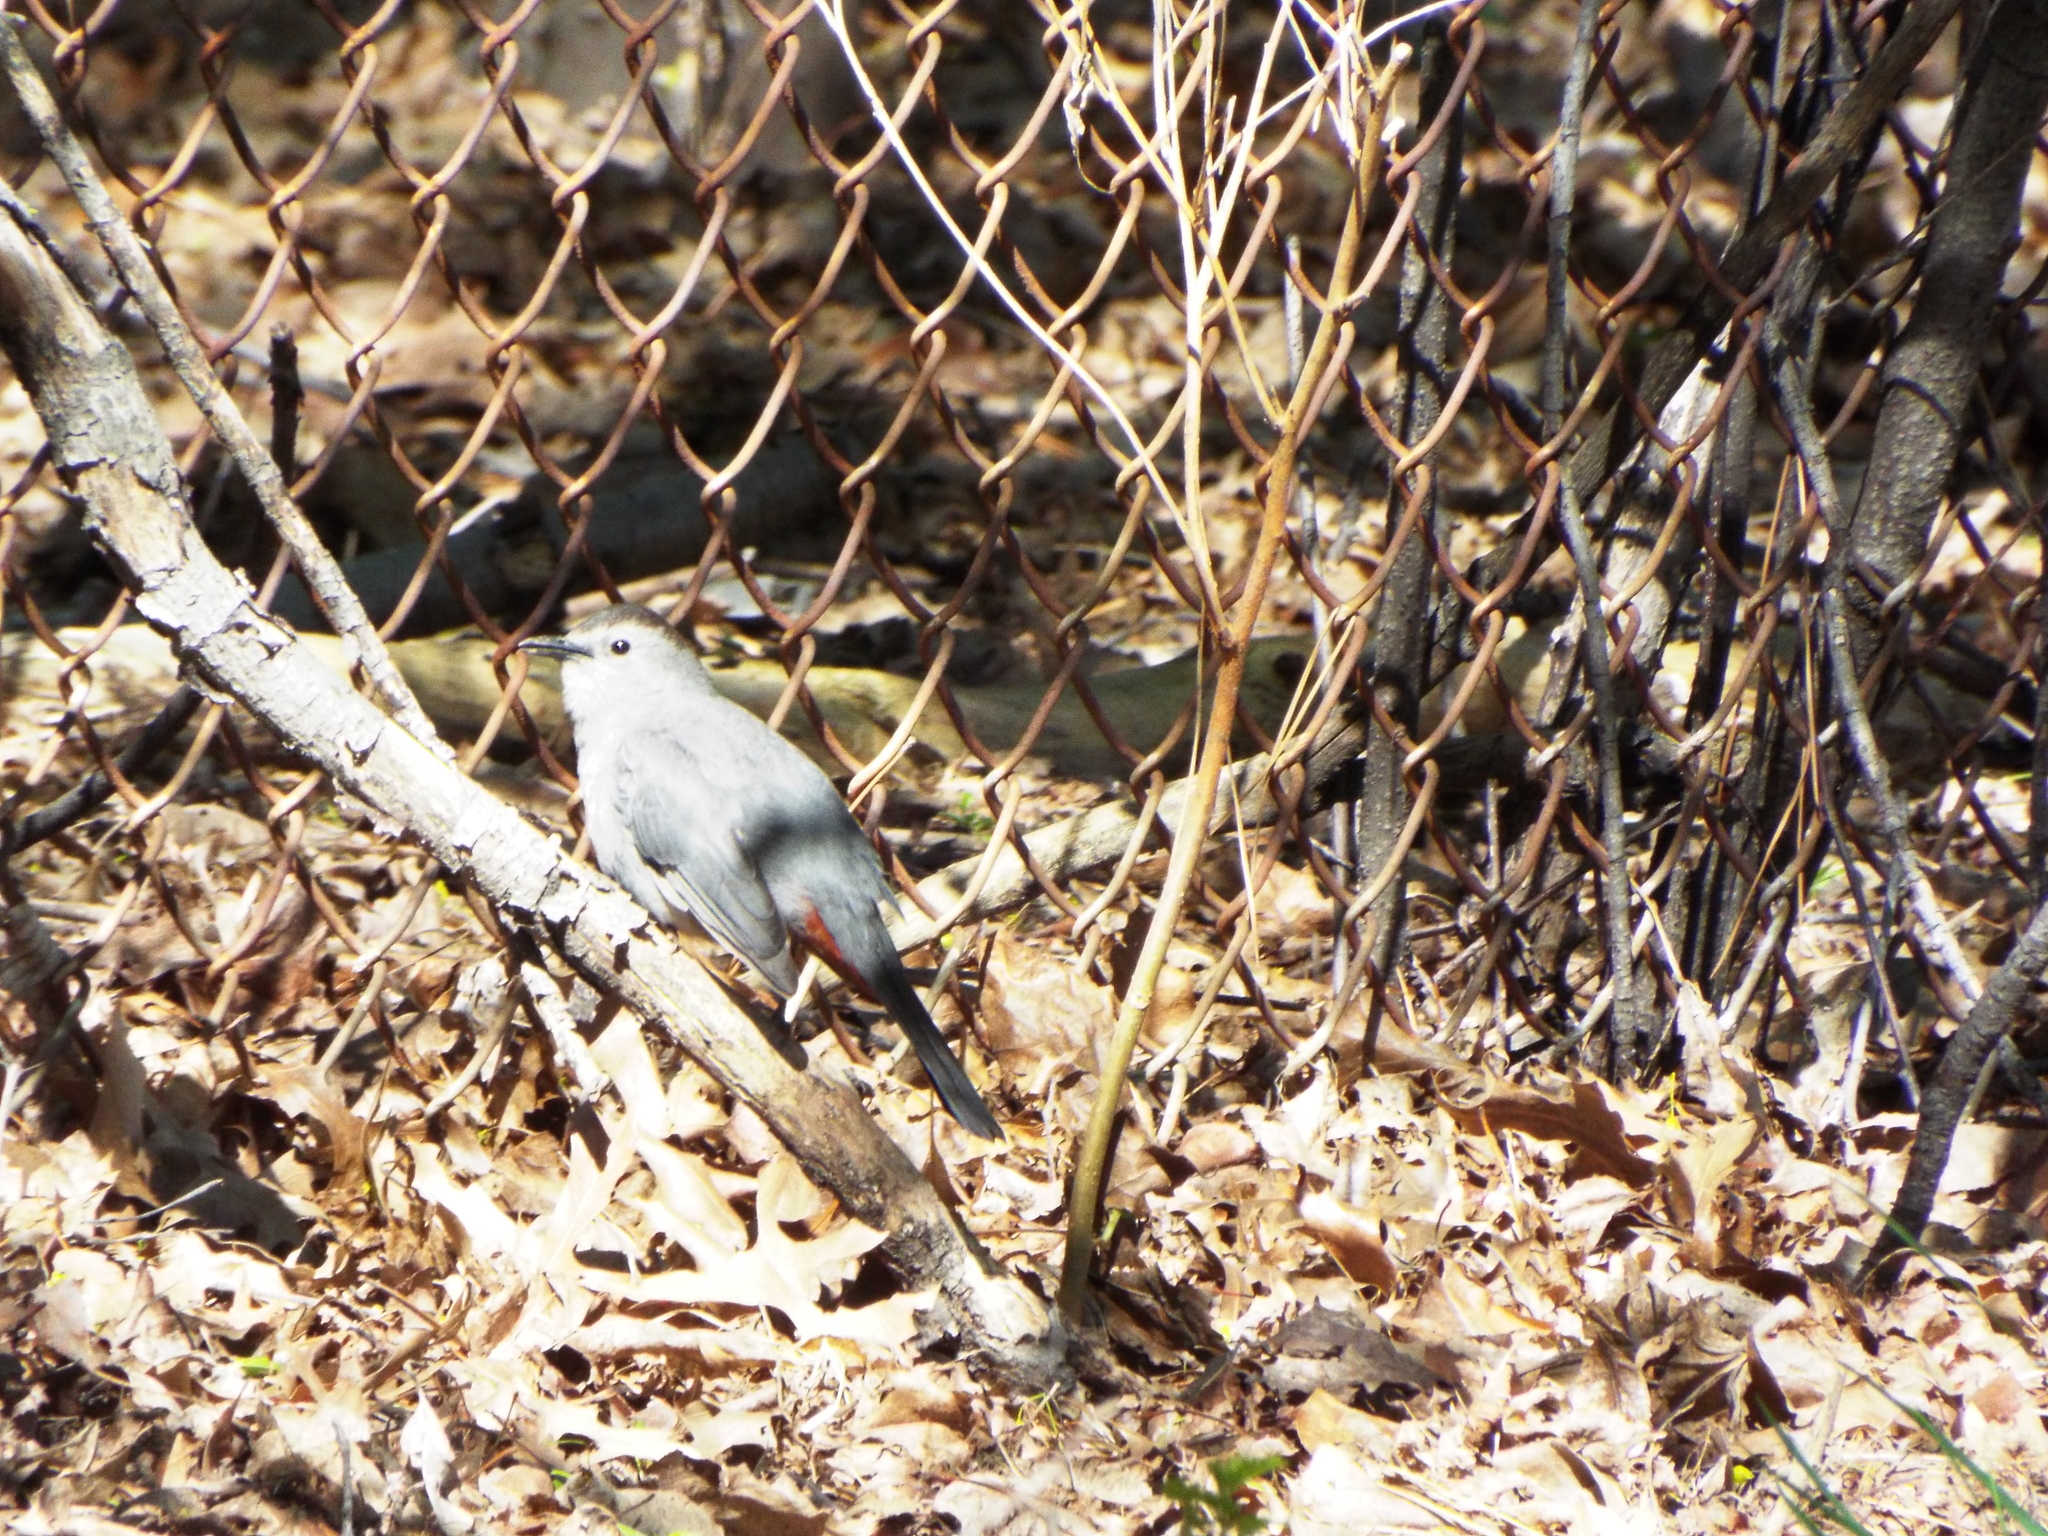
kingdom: Animalia
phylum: Chordata
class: Aves
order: Passeriformes
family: Mimidae
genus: Dumetella
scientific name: Dumetella carolinensis
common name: Gray catbird
